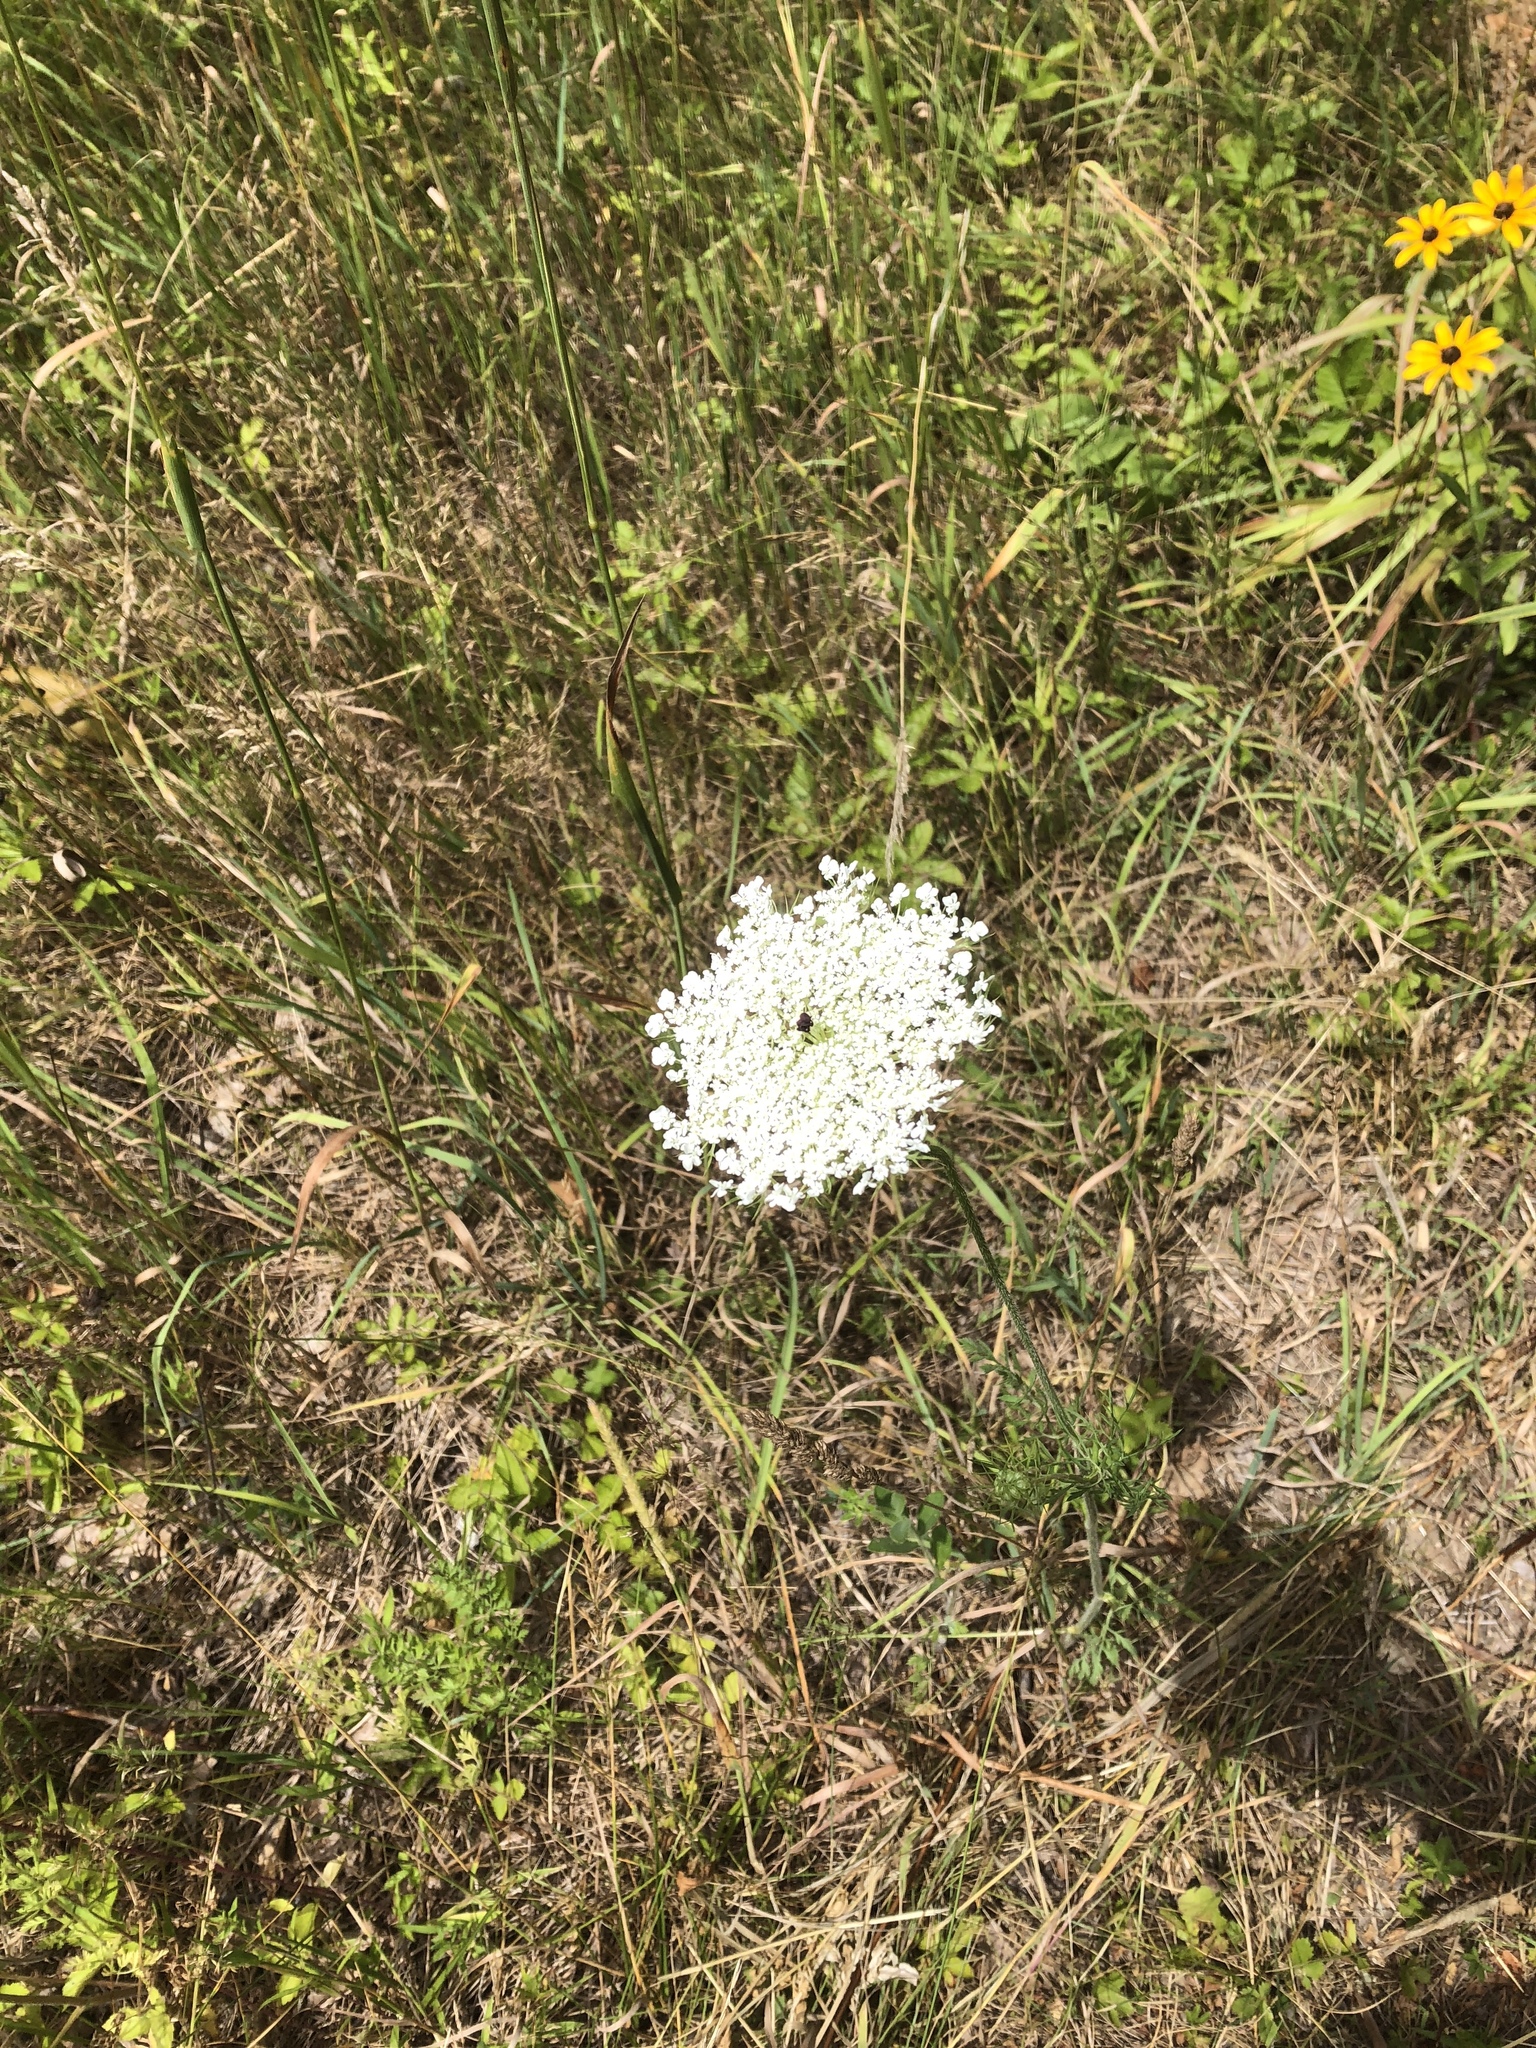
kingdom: Plantae
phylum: Tracheophyta
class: Magnoliopsida
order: Apiales
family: Apiaceae
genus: Daucus
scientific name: Daucus carota
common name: Wild carrot
